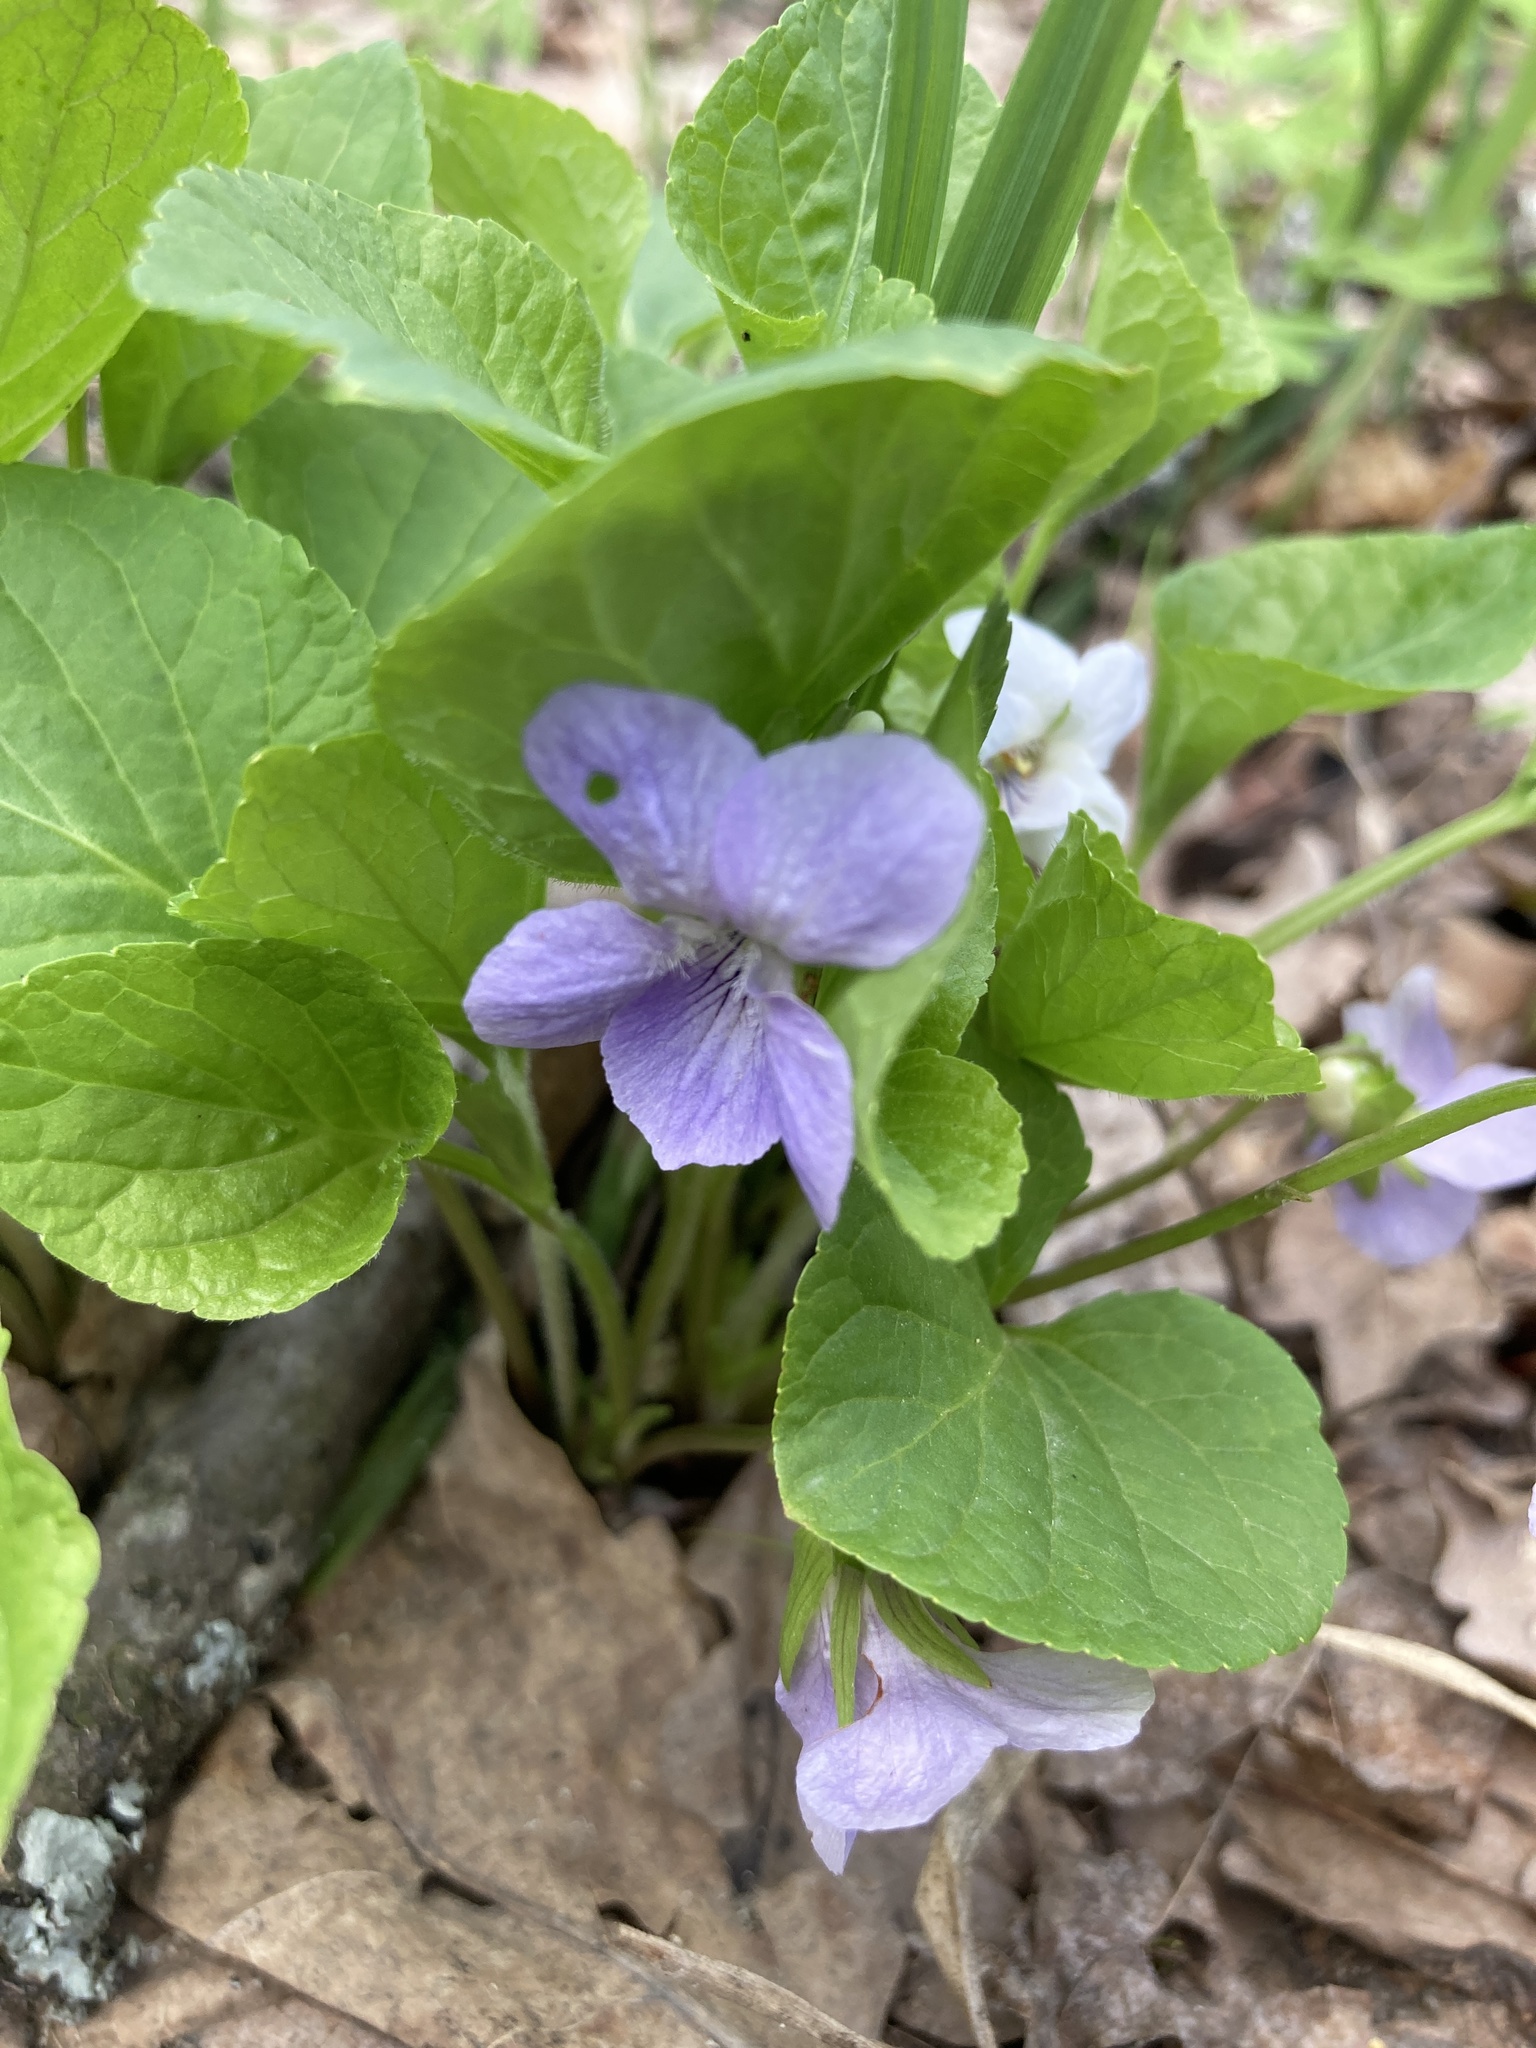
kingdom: Plantae
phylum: Tracheophyta
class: Magnoliopsida
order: Malpighiales
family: Violaceae
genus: Viola
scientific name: Viola mirabilis
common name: Wonder violet
